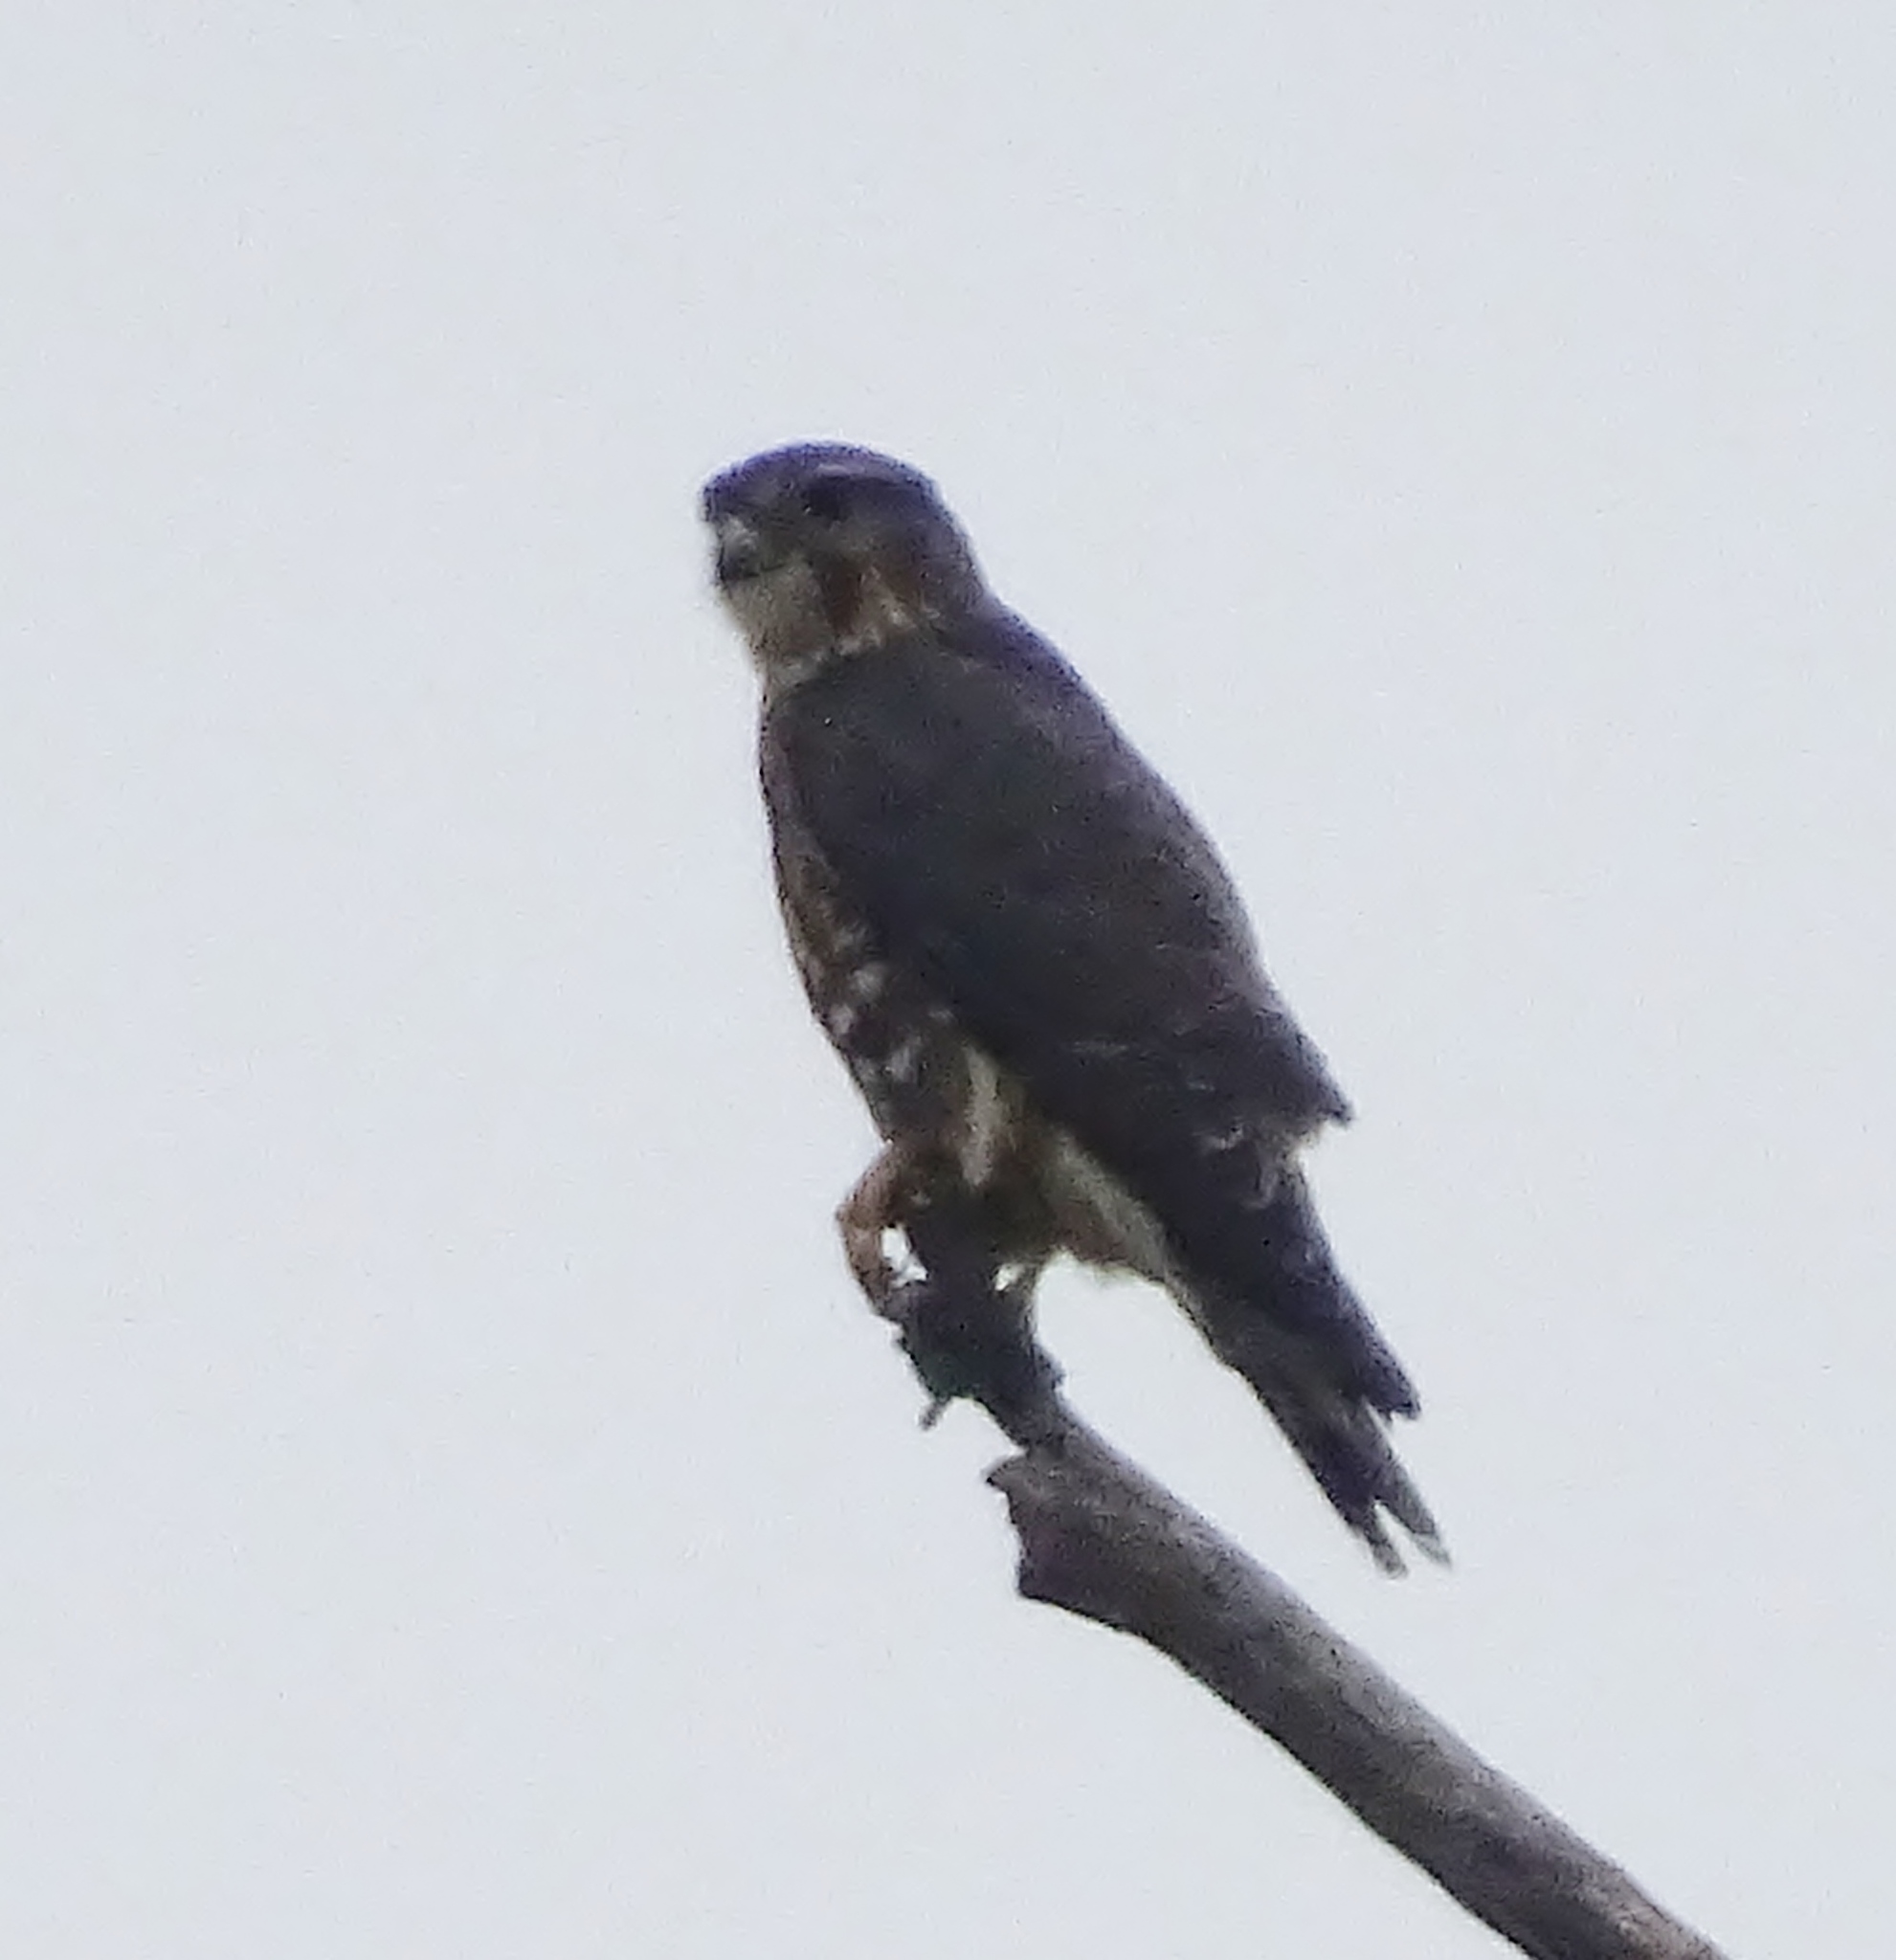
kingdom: Animalia
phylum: Chordata
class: Aves
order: Falconiformes
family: Falconidae
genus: Falco
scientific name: Falco columbarius
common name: Merlin
